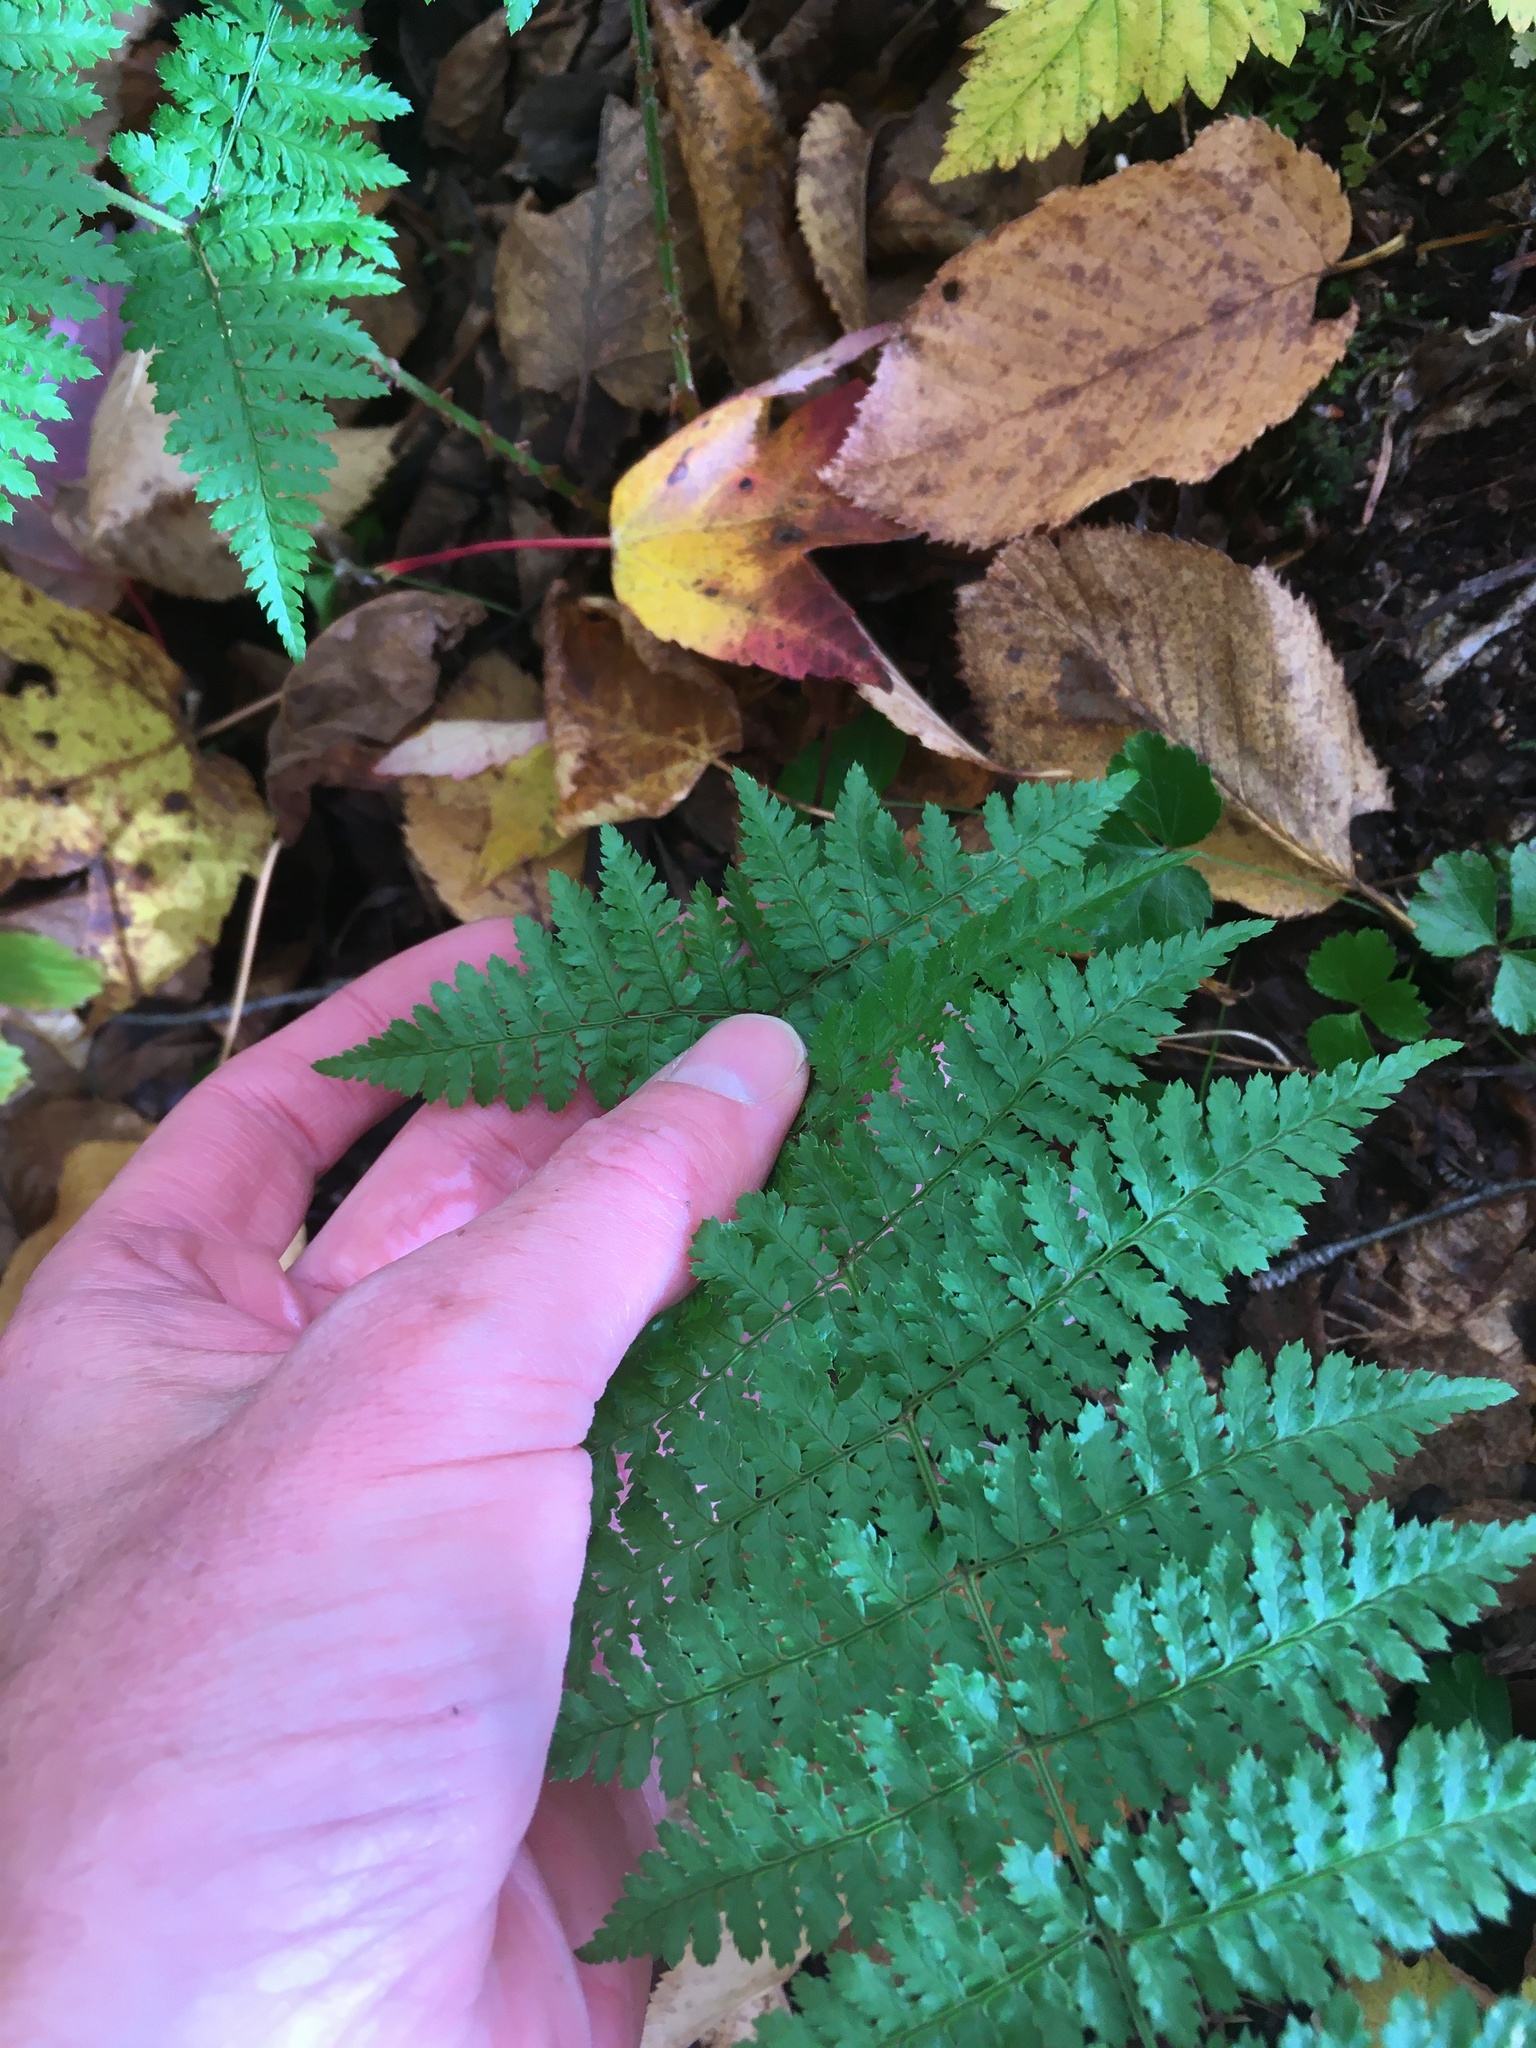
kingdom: Plantae
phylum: Tracheophyta
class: Polypodiopsida
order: Polypodiales
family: Dryopteridaceae
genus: Dryopteris
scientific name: Dryopteris intermedia
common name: Evergreen wood fern
